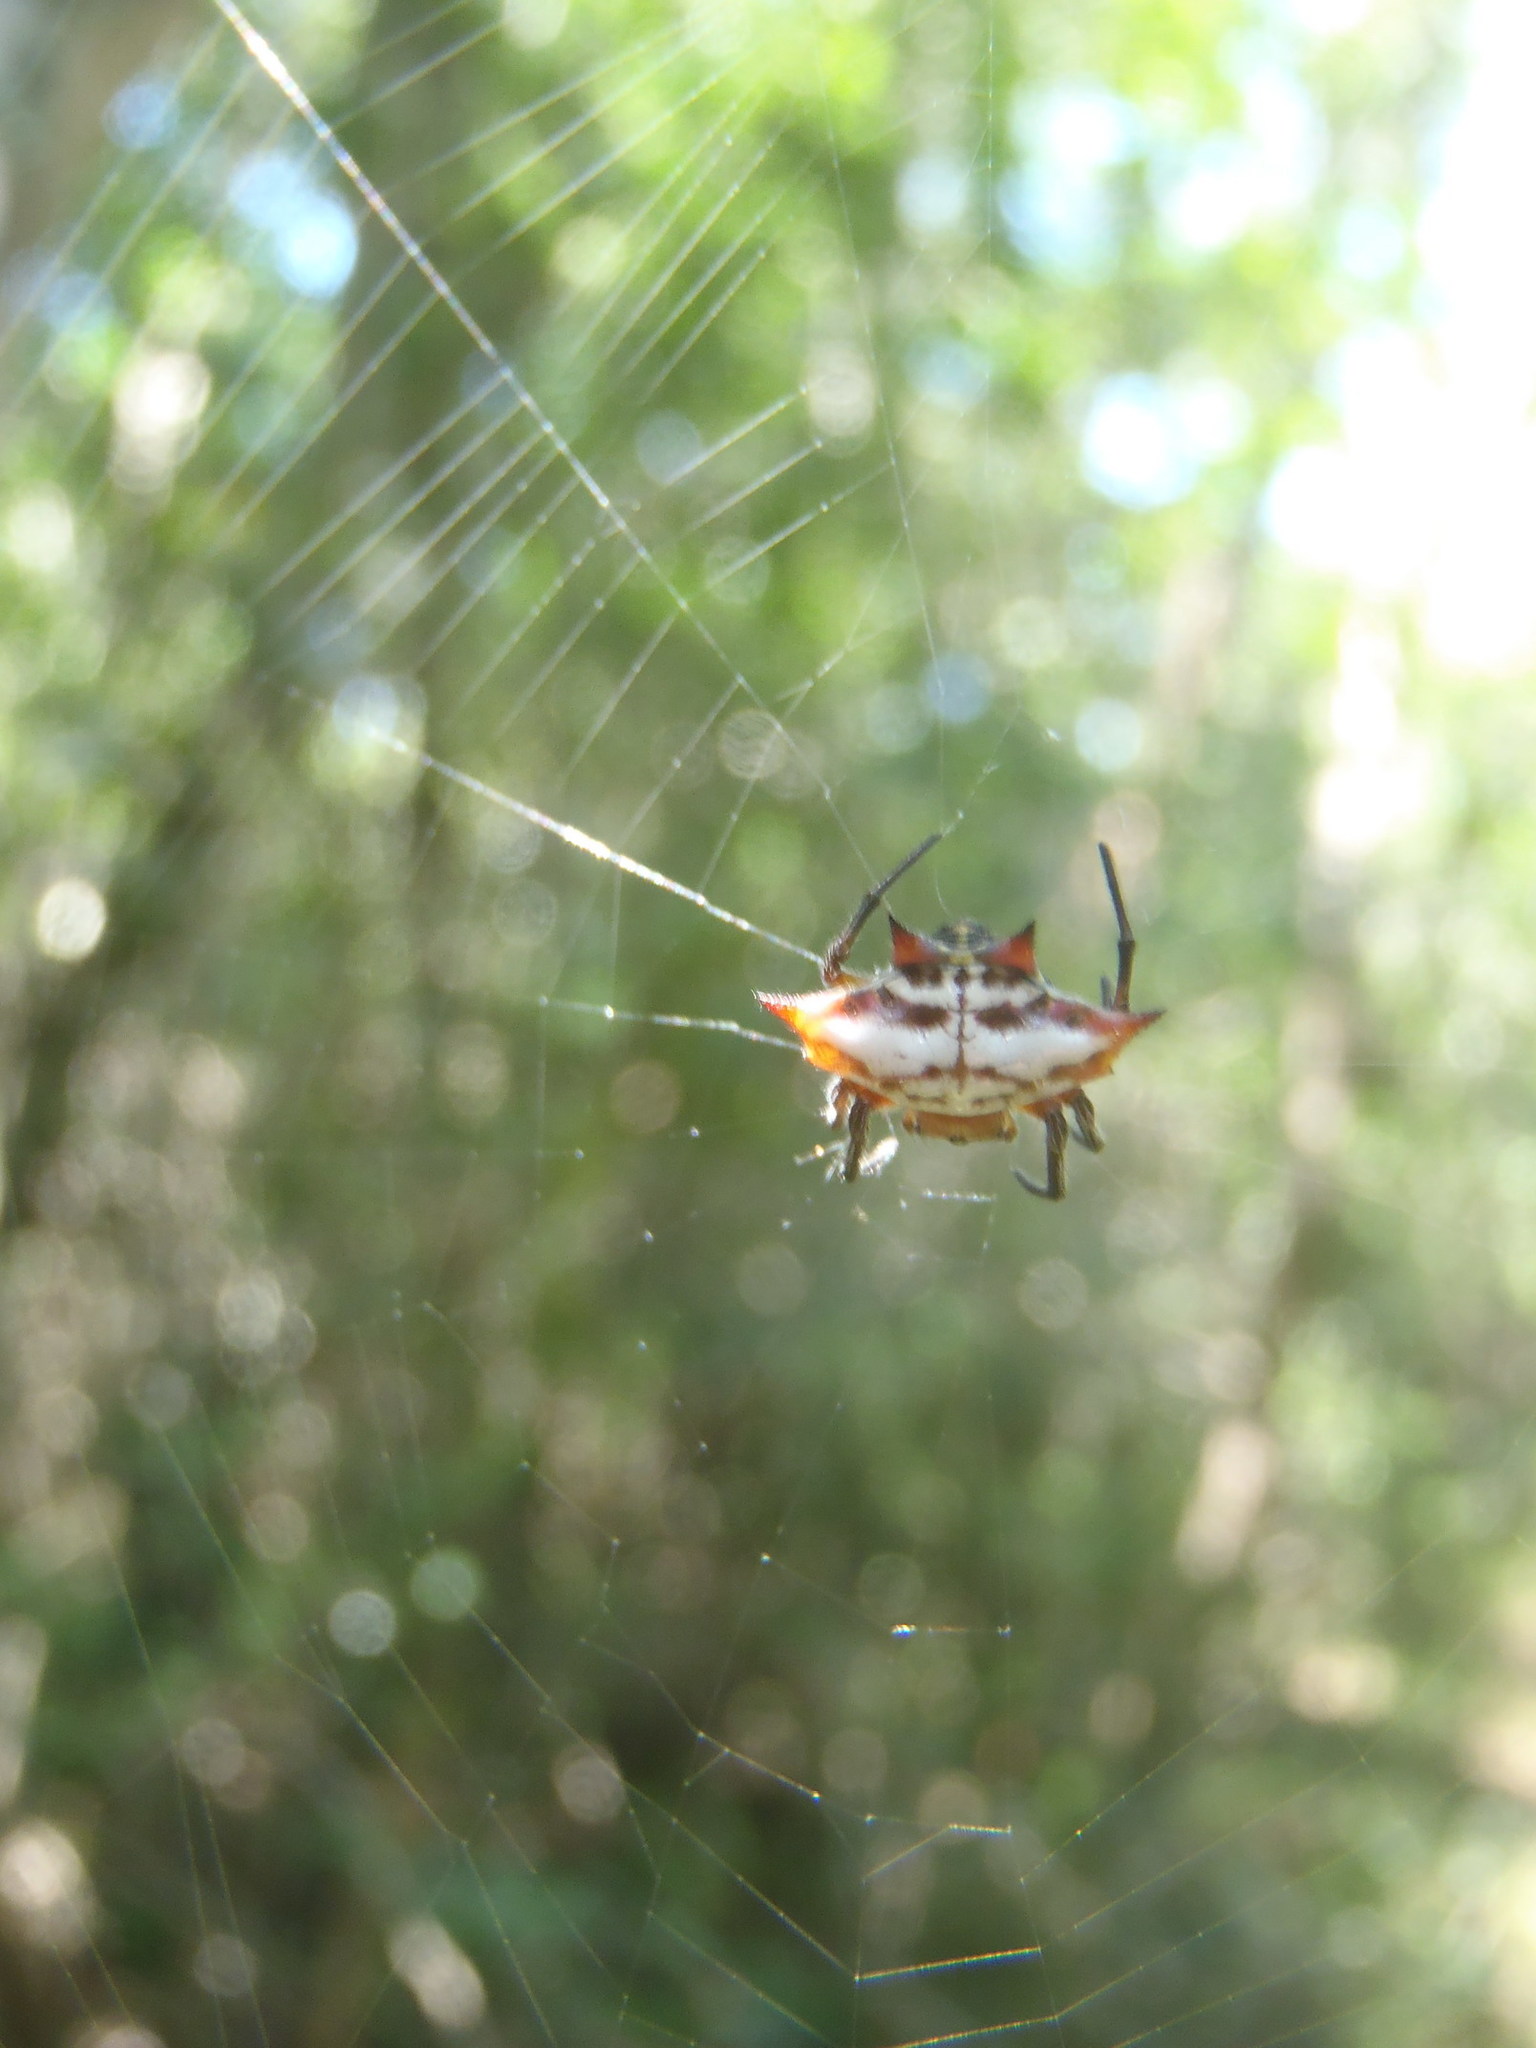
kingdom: Animalia
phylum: Arthropoda
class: Arachnida
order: Araneae
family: Araneidae
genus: Gasteracantha
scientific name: Gasteracantha sanguinolenta
